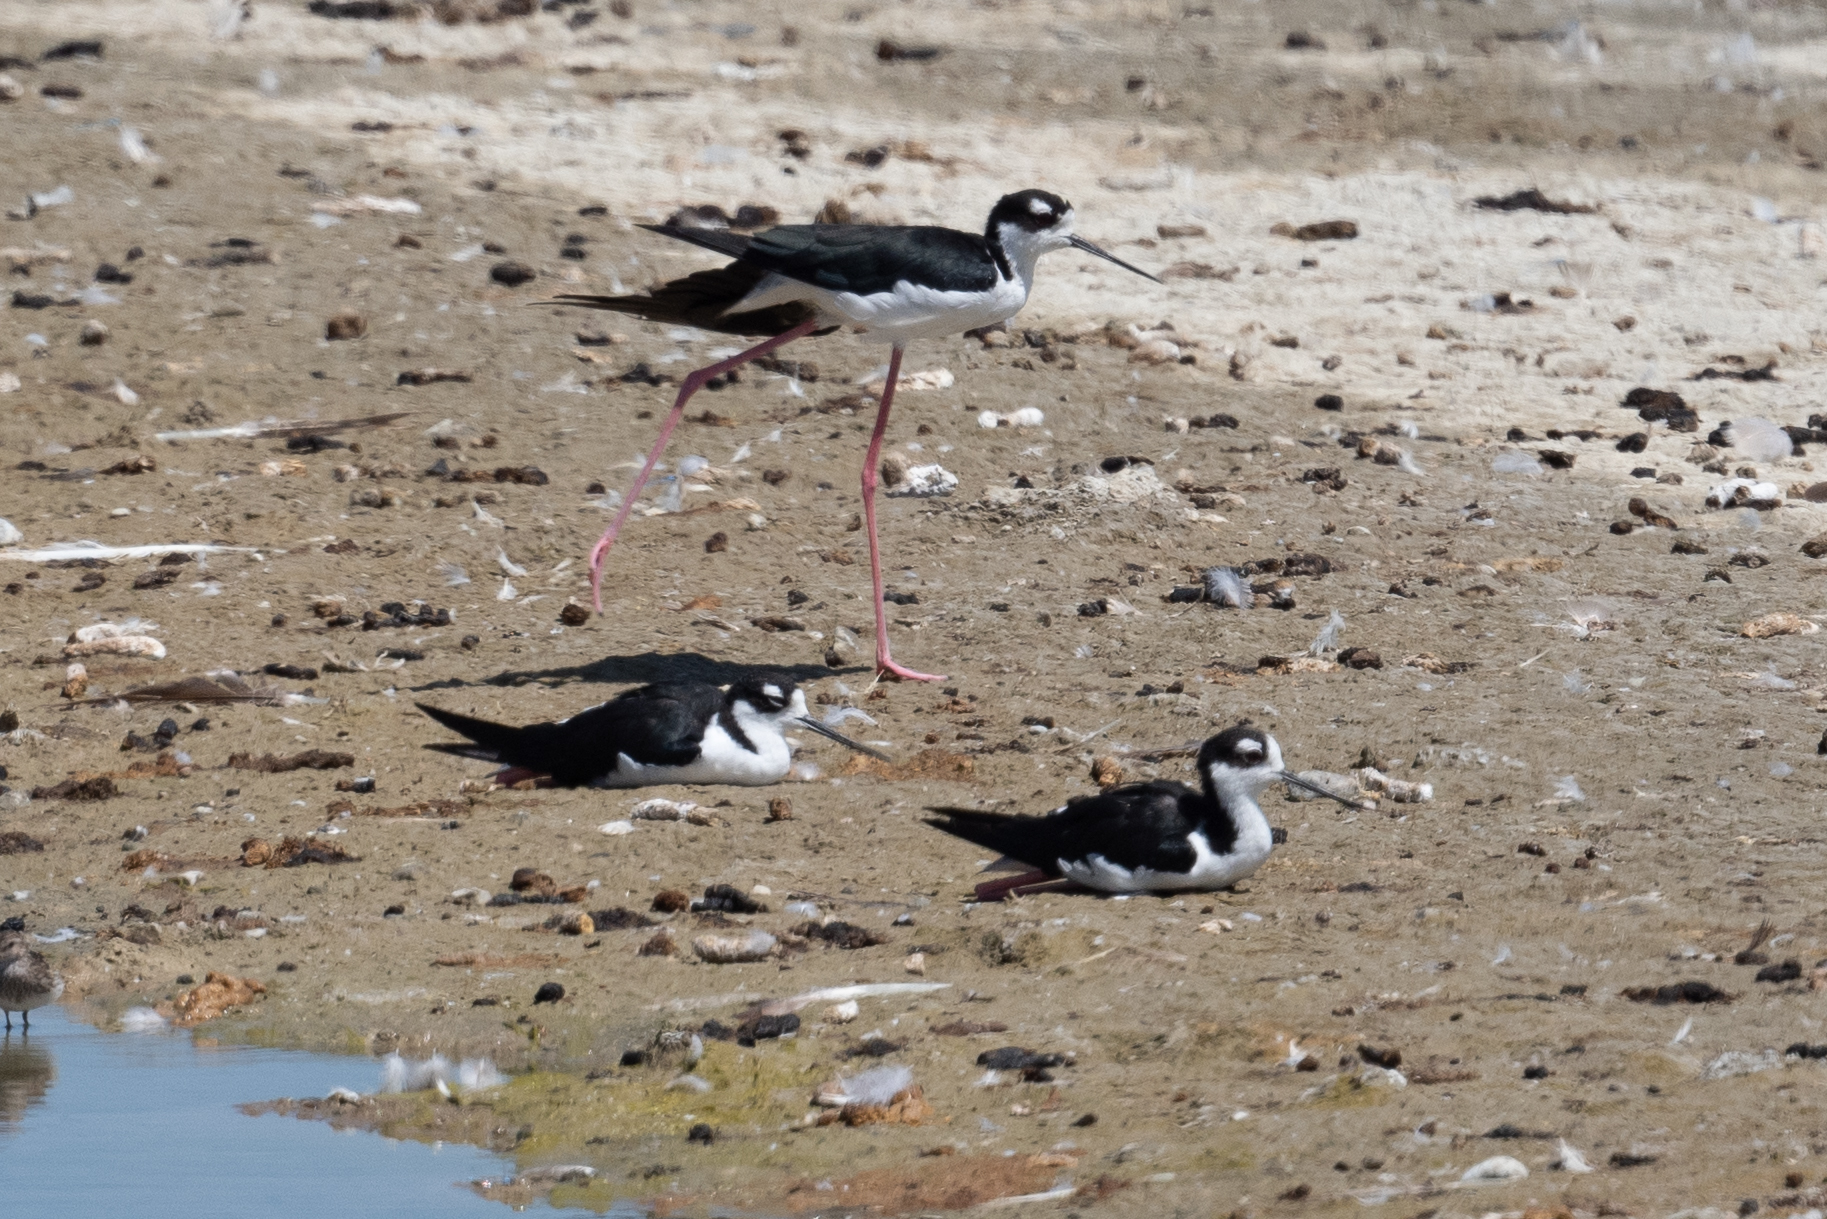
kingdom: Animalia
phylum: Chordata
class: Aves
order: Charadriiformes
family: Recurvirostridae
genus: Himantopus
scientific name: Himantopus mexicanus
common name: Black-necked stilt
